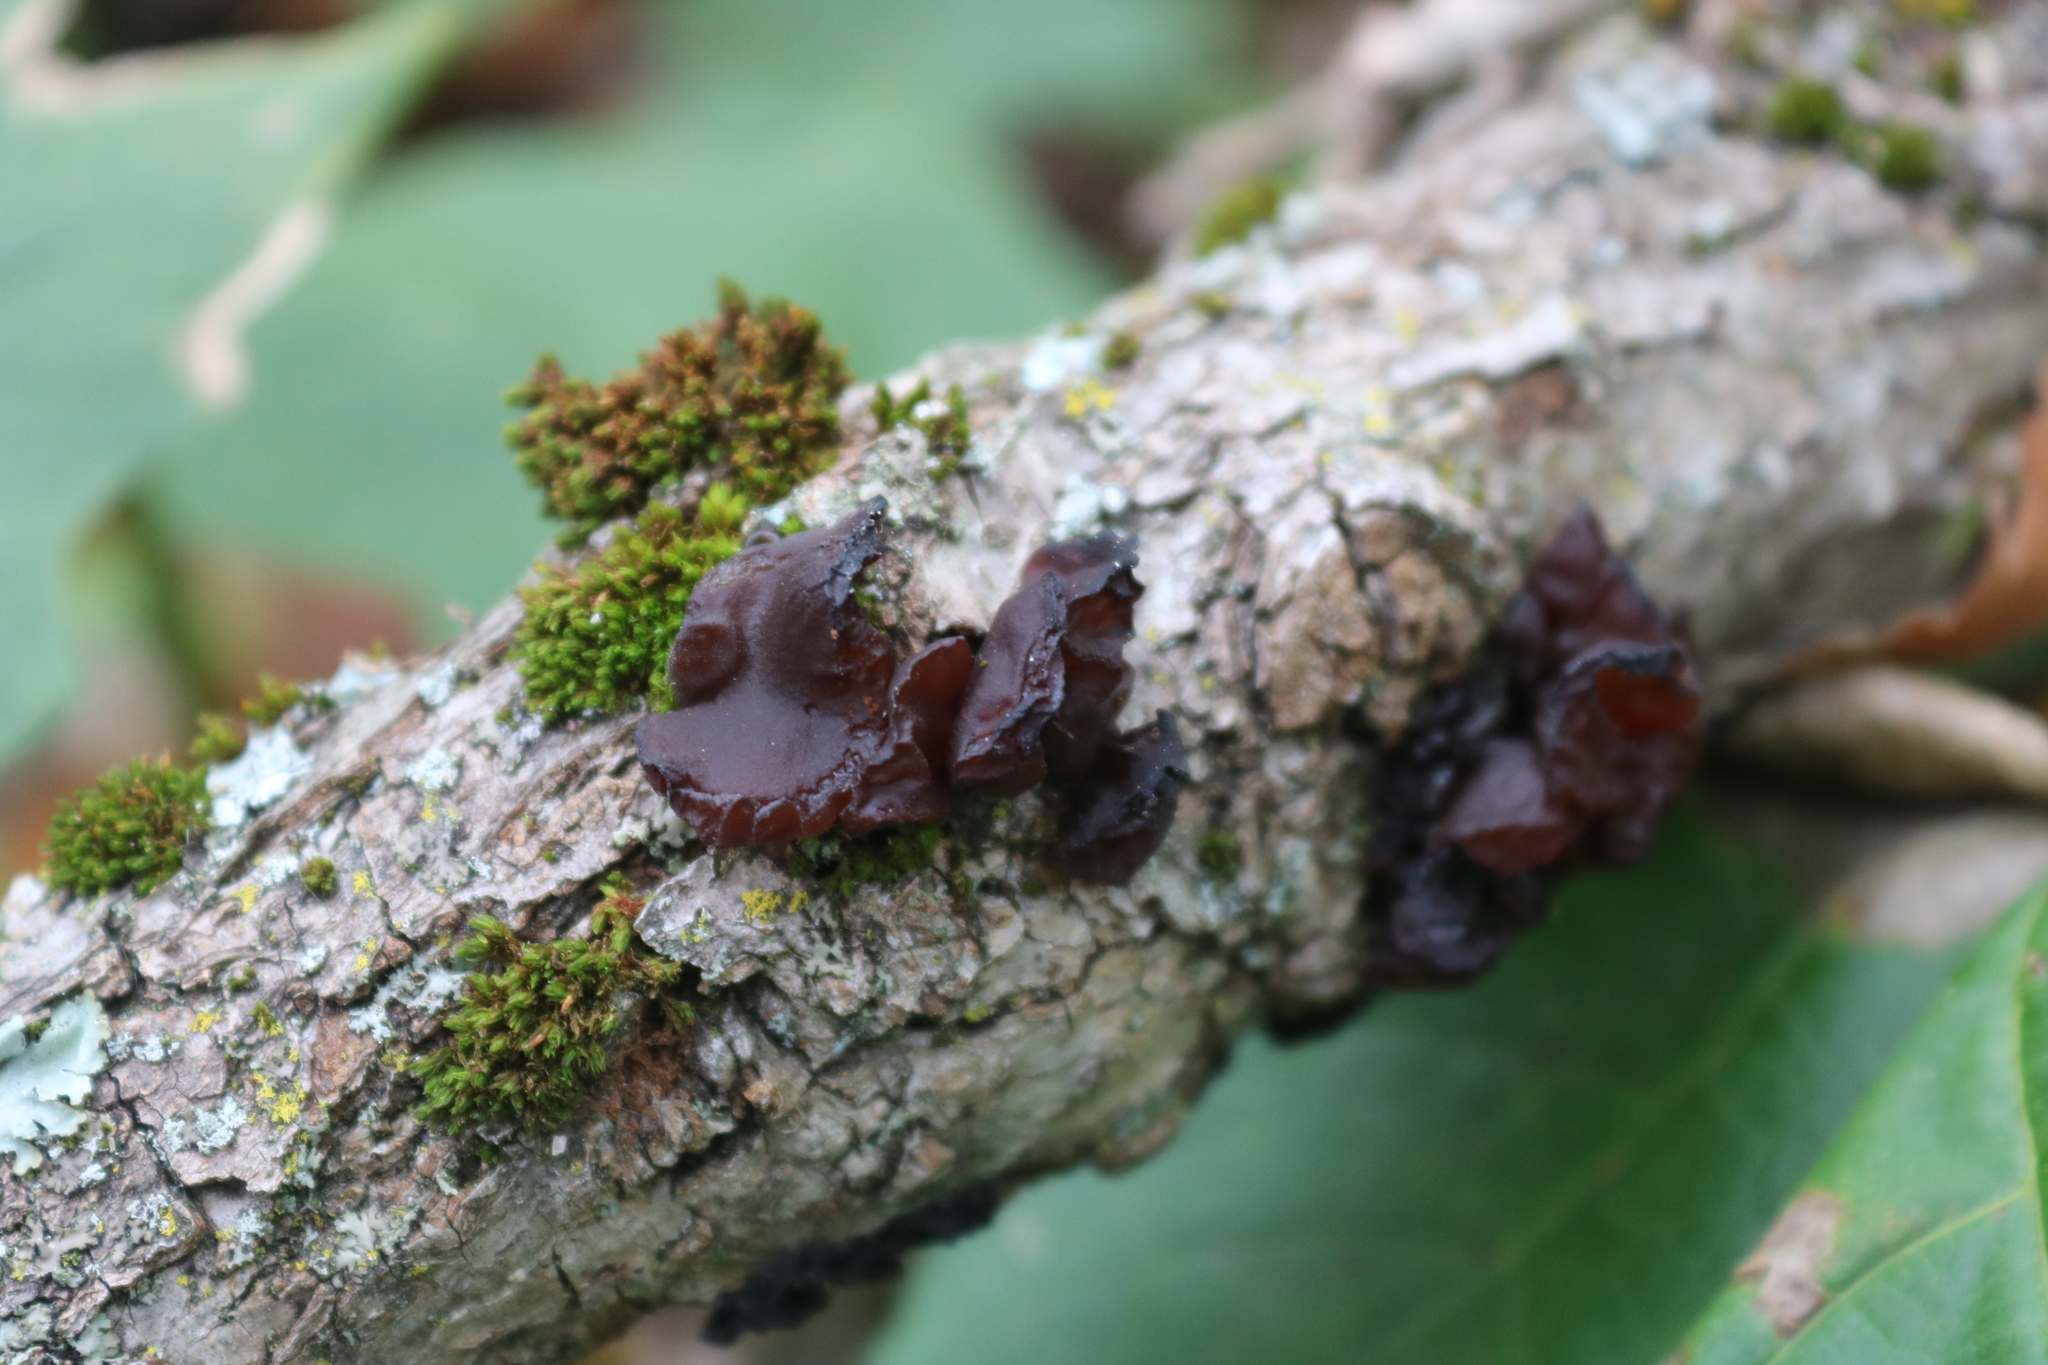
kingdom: Fungi
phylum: Basidiomycota
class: Agaricomycetes
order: Auriculariales
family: Auriculariaceae
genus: Exidia
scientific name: Exidia
